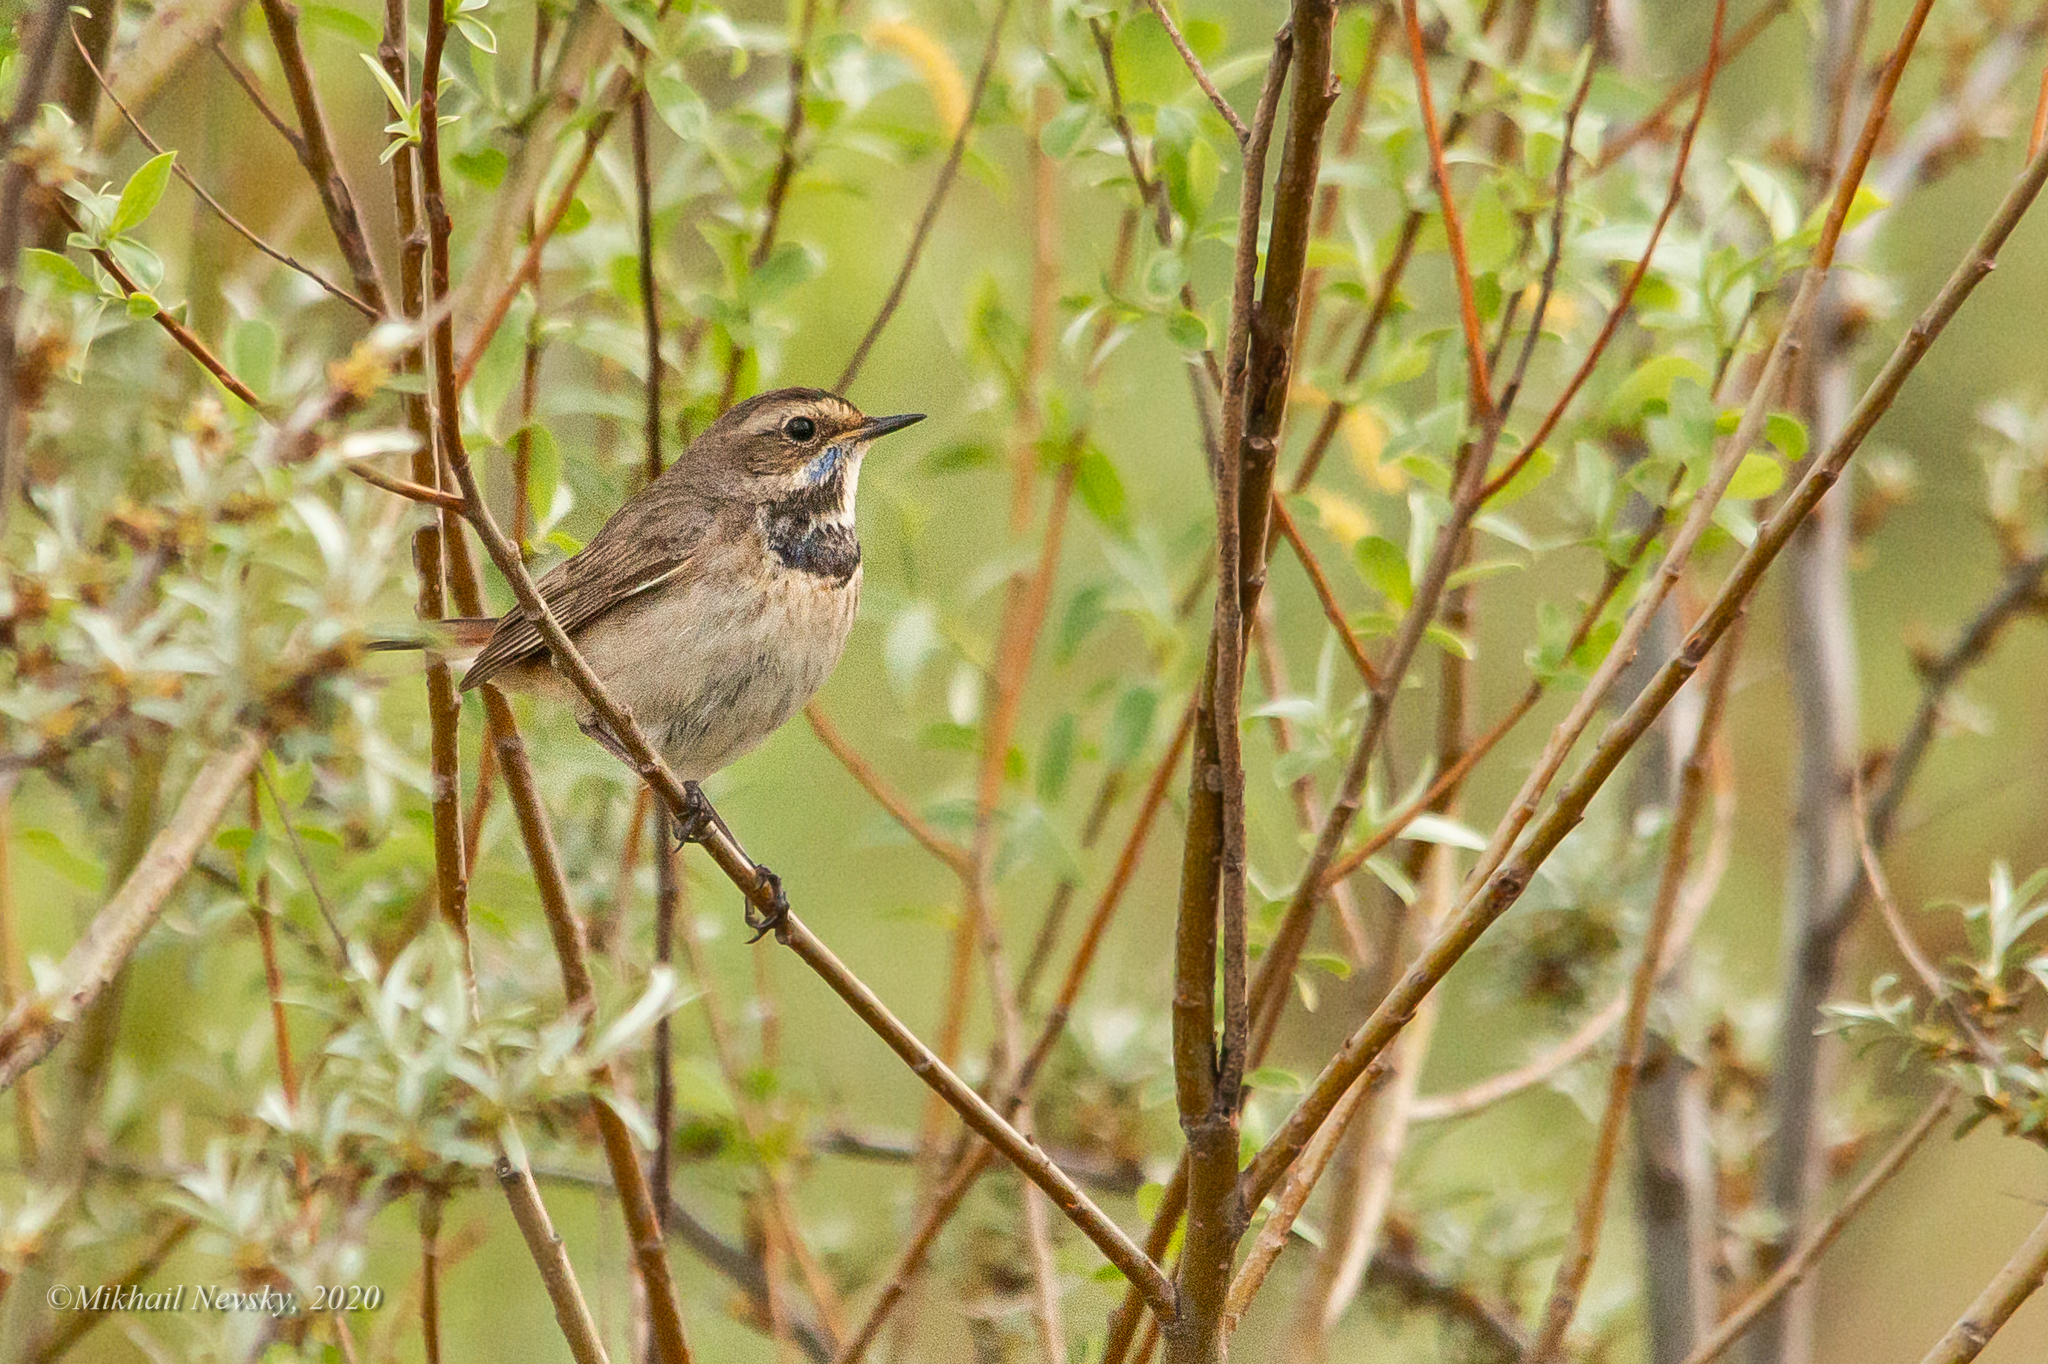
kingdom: Animalia
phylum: Chordata
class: Aves
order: Passeriformes
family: Muscicapidae
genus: Luscinia
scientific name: Luscinia svecica
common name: Bluethroat
